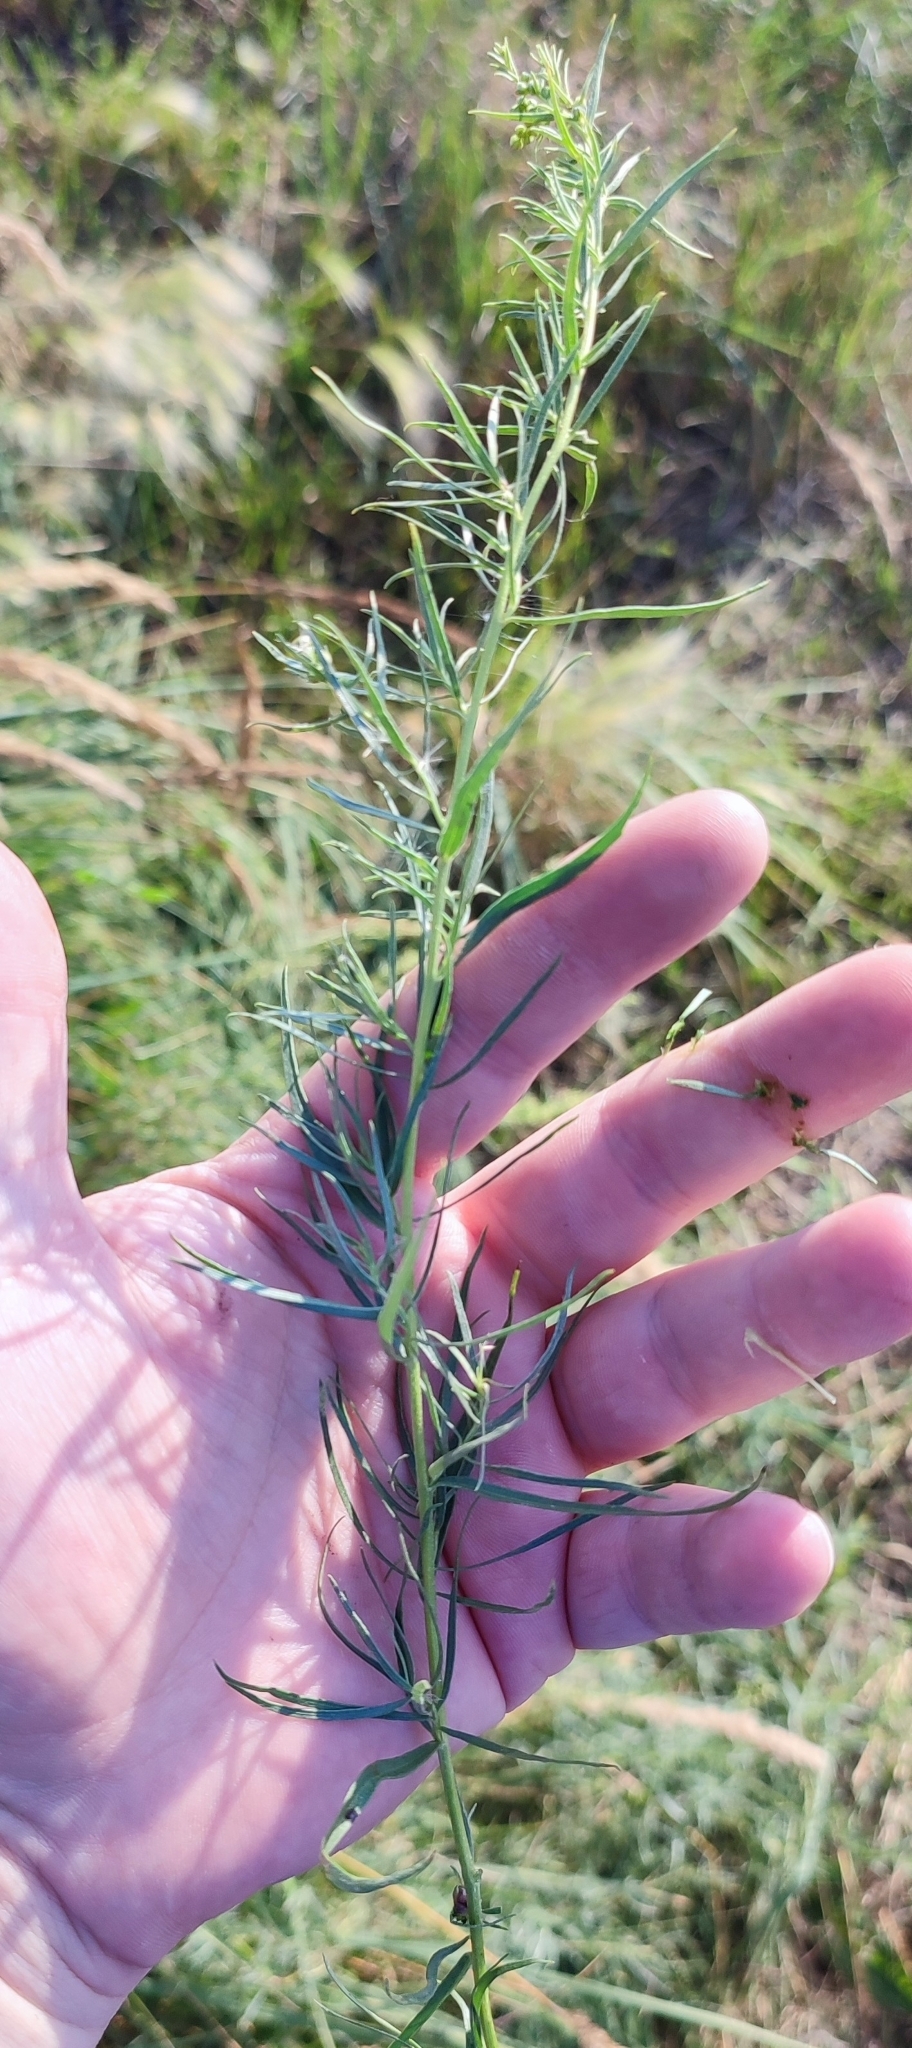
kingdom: Plantae
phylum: Tracheophyta
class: Magnoliopsida
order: Asterales
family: Asteraceae
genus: Artemisia
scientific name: Artemisia dracunculus
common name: Tarragon
